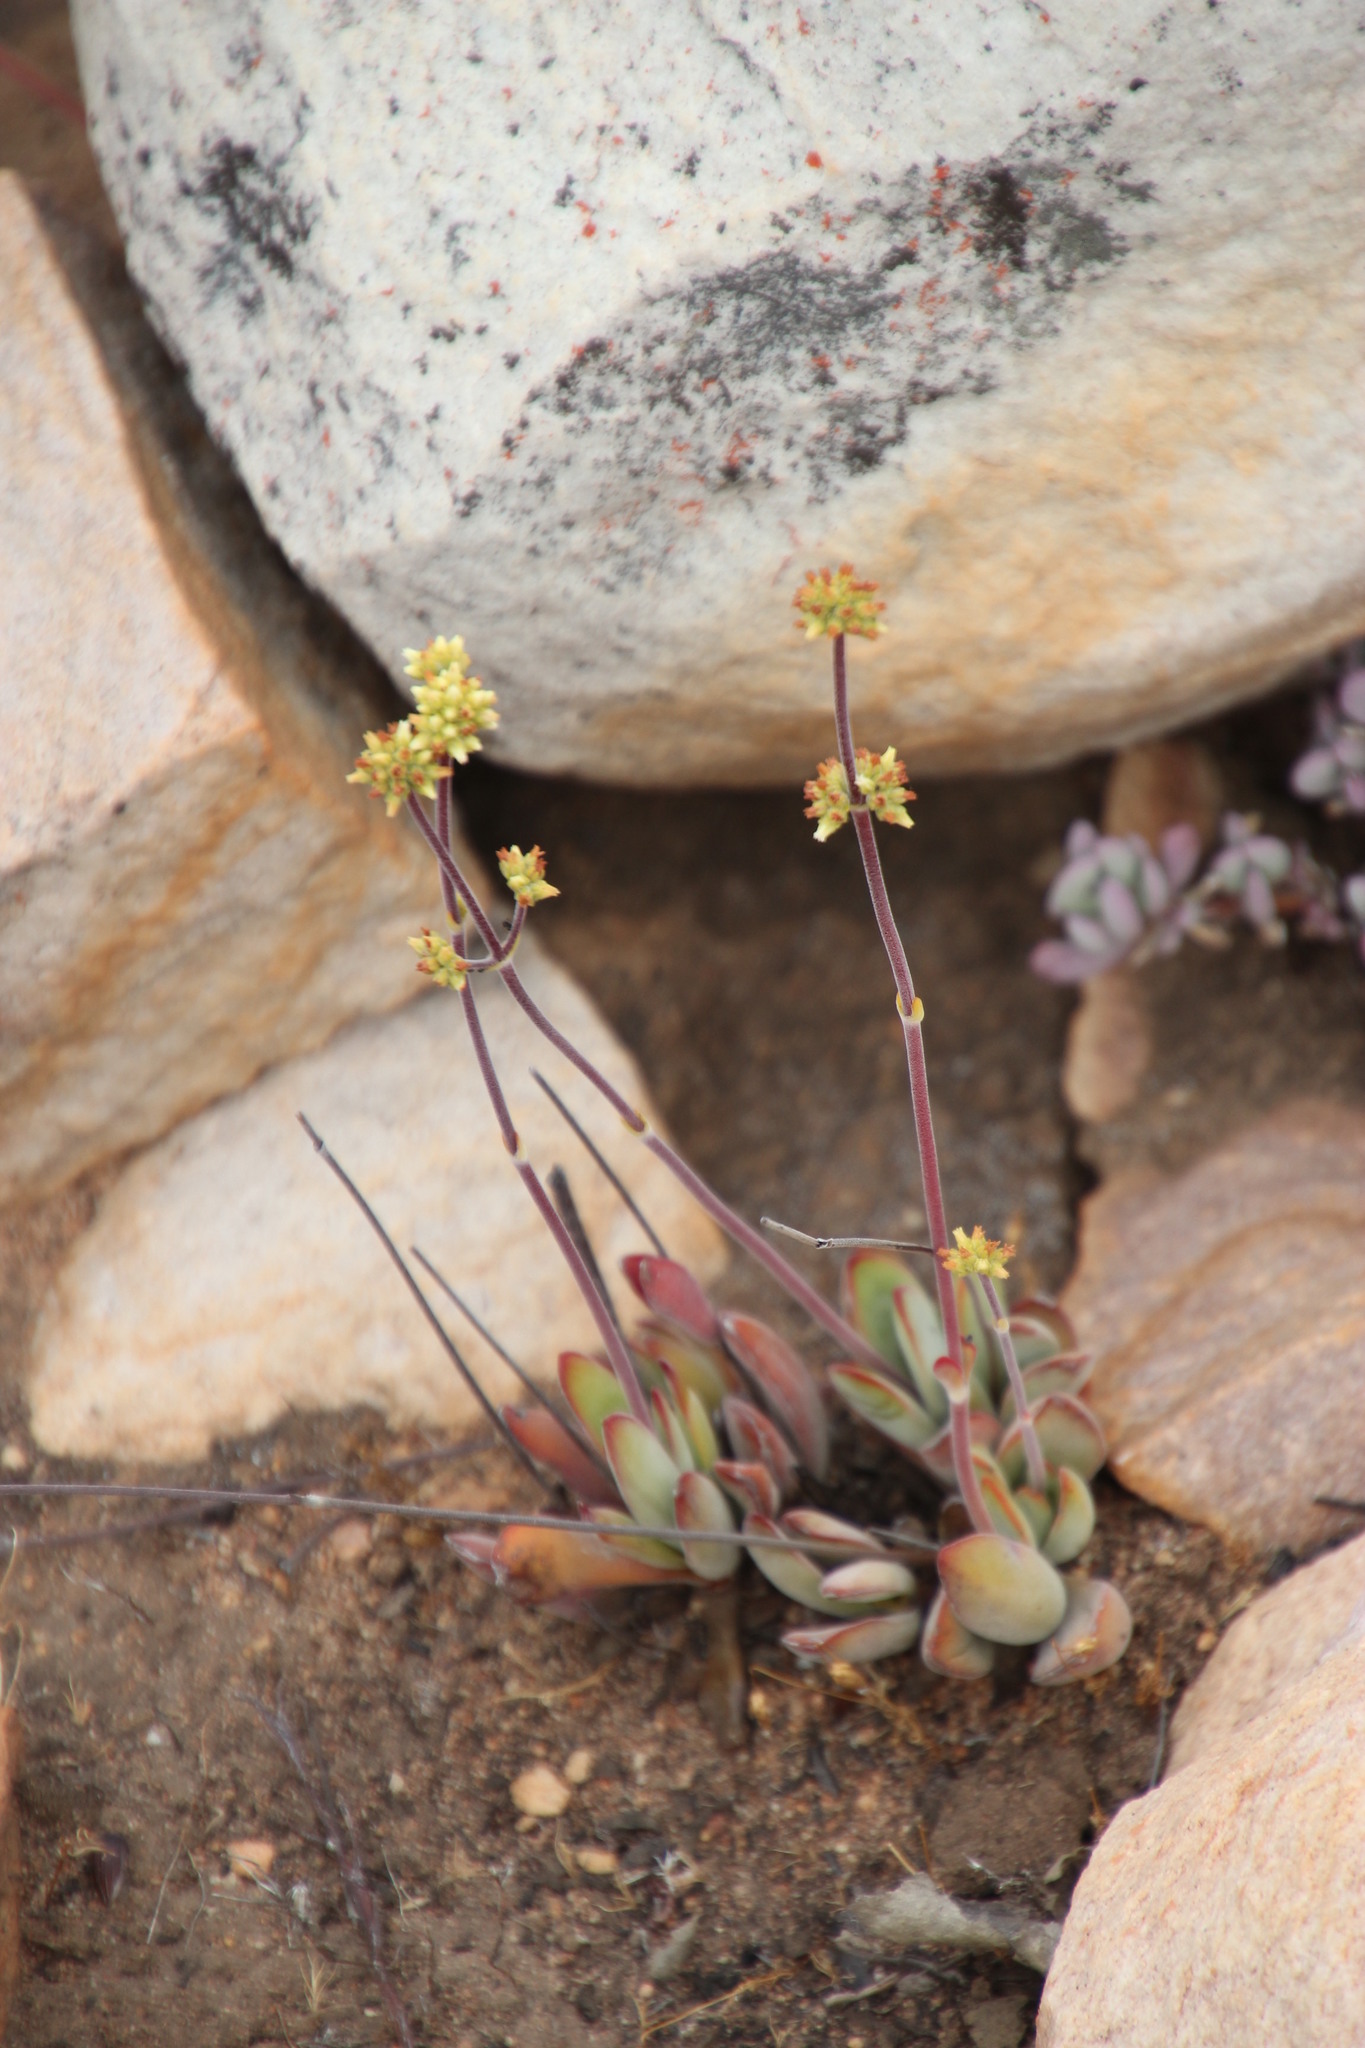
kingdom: Plantae
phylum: Tracheophyta
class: Magnoliopsida
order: Saxifragales
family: Crassulaceae
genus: Crassula
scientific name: Crassula atropurpurea
